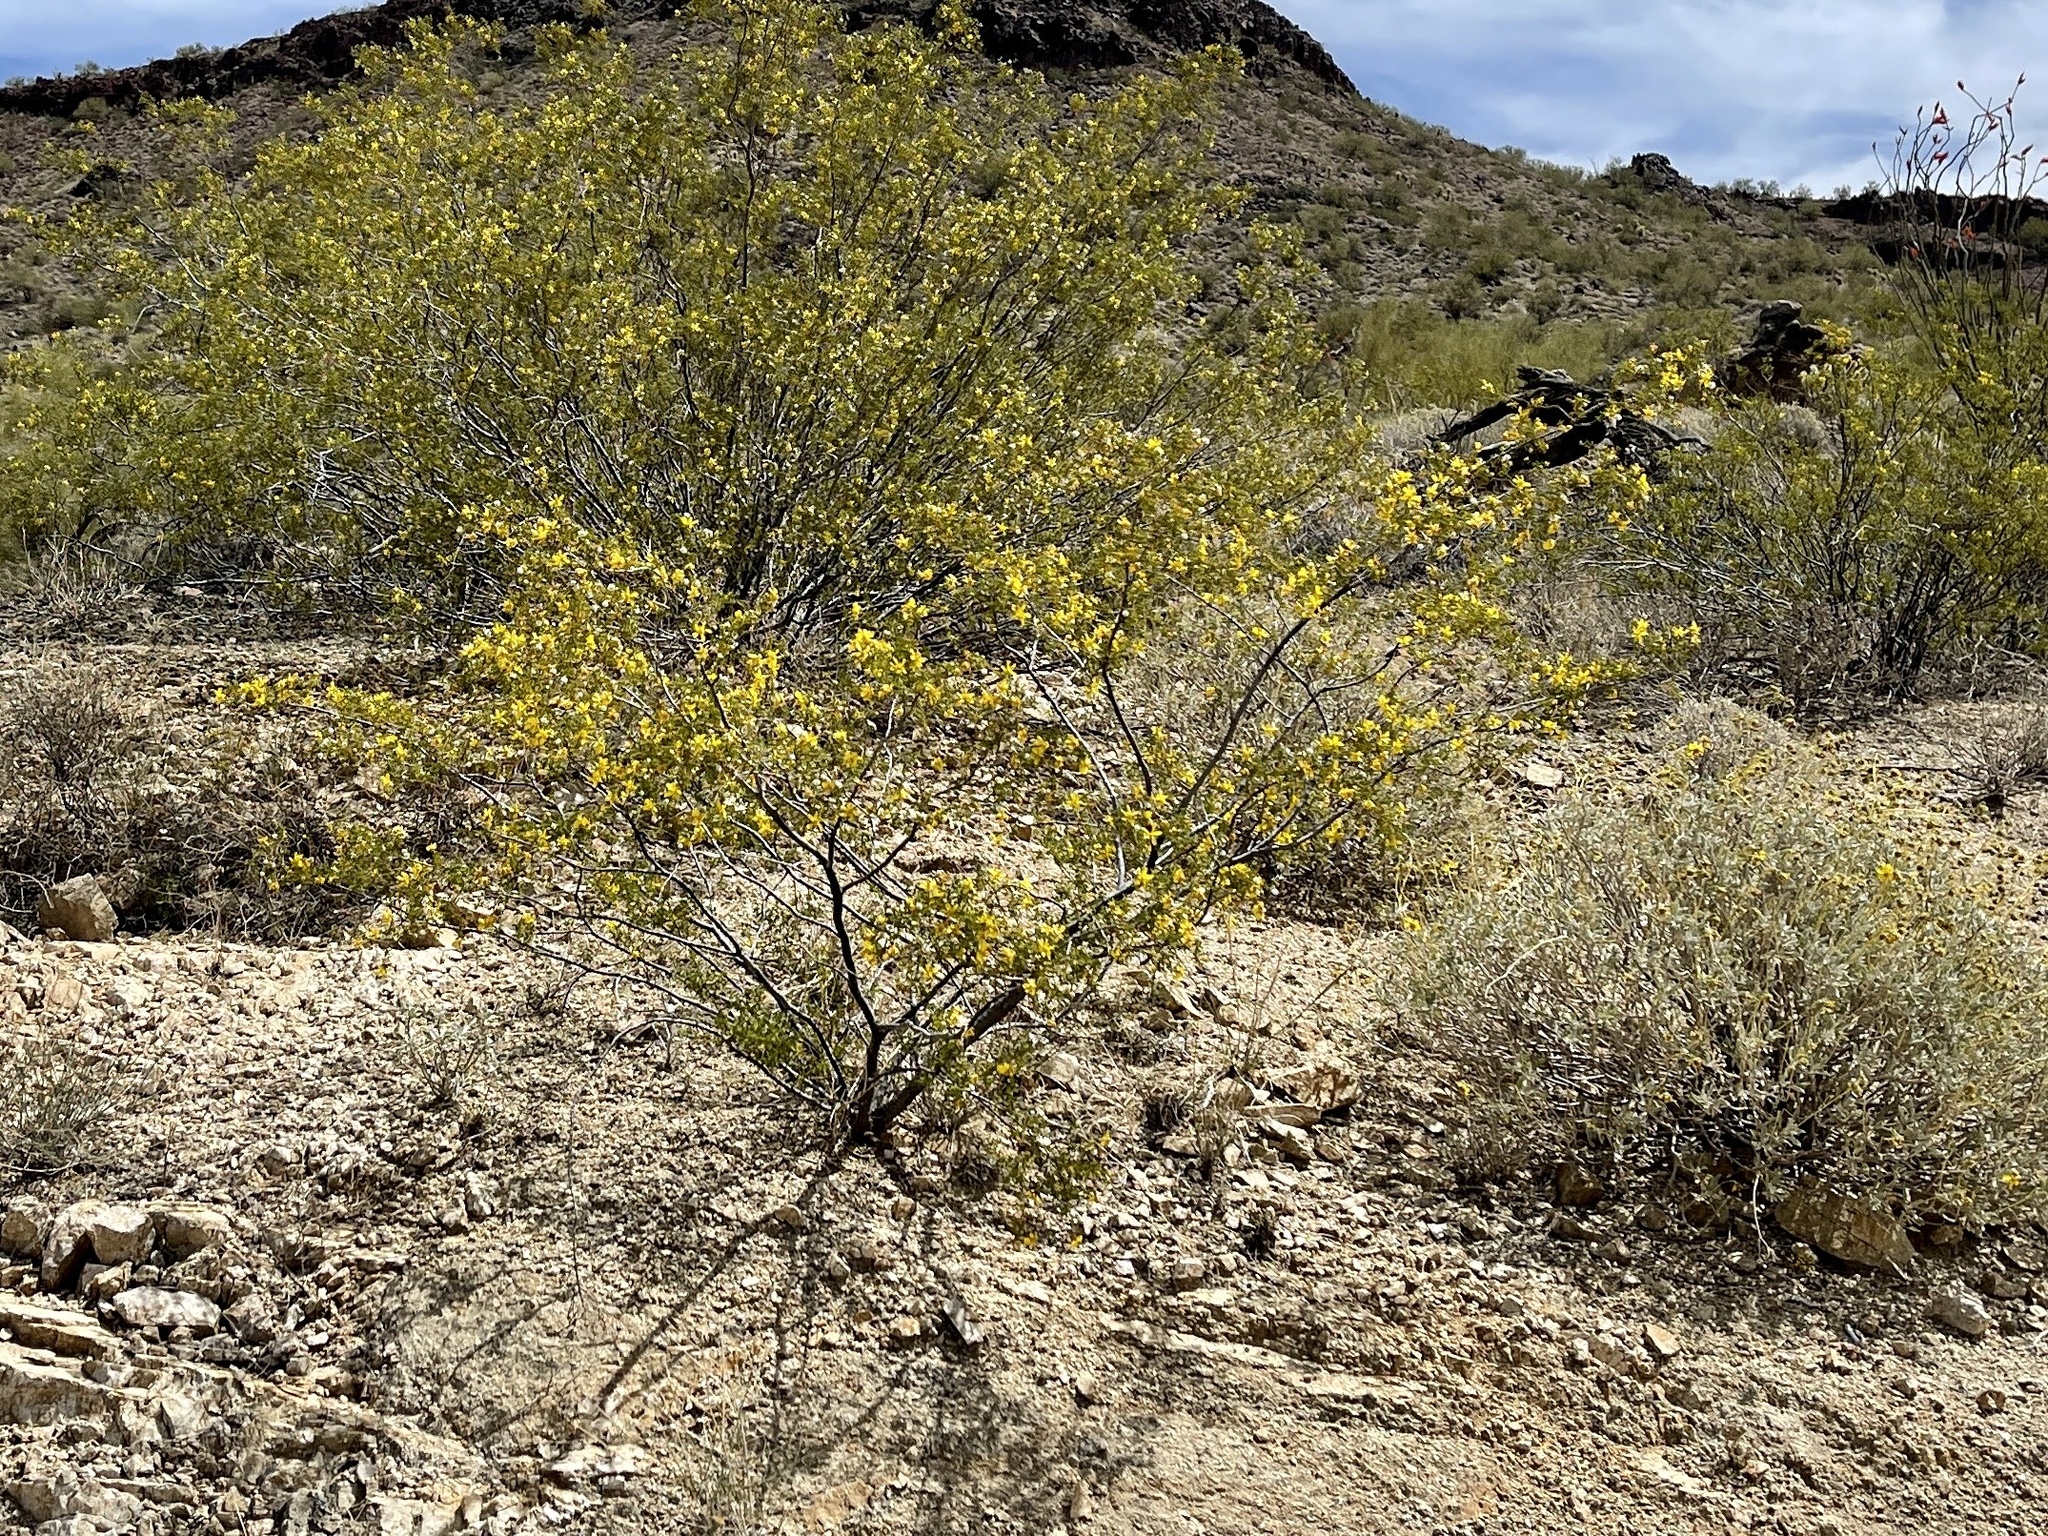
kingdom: Plantae
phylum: Tracheophyta
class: Magnoliopsida
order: Zygophyllales
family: Zygophyllaceae
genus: Larrea
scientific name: Larrea tridentata
